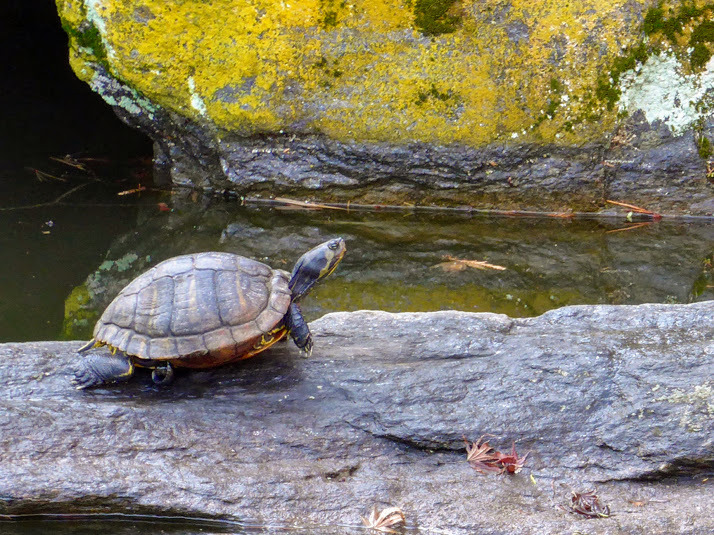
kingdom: Animalia
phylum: Chordata
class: Testudines
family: Emydidae
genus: Trachemys
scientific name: Trachemys scripta
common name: Slider
